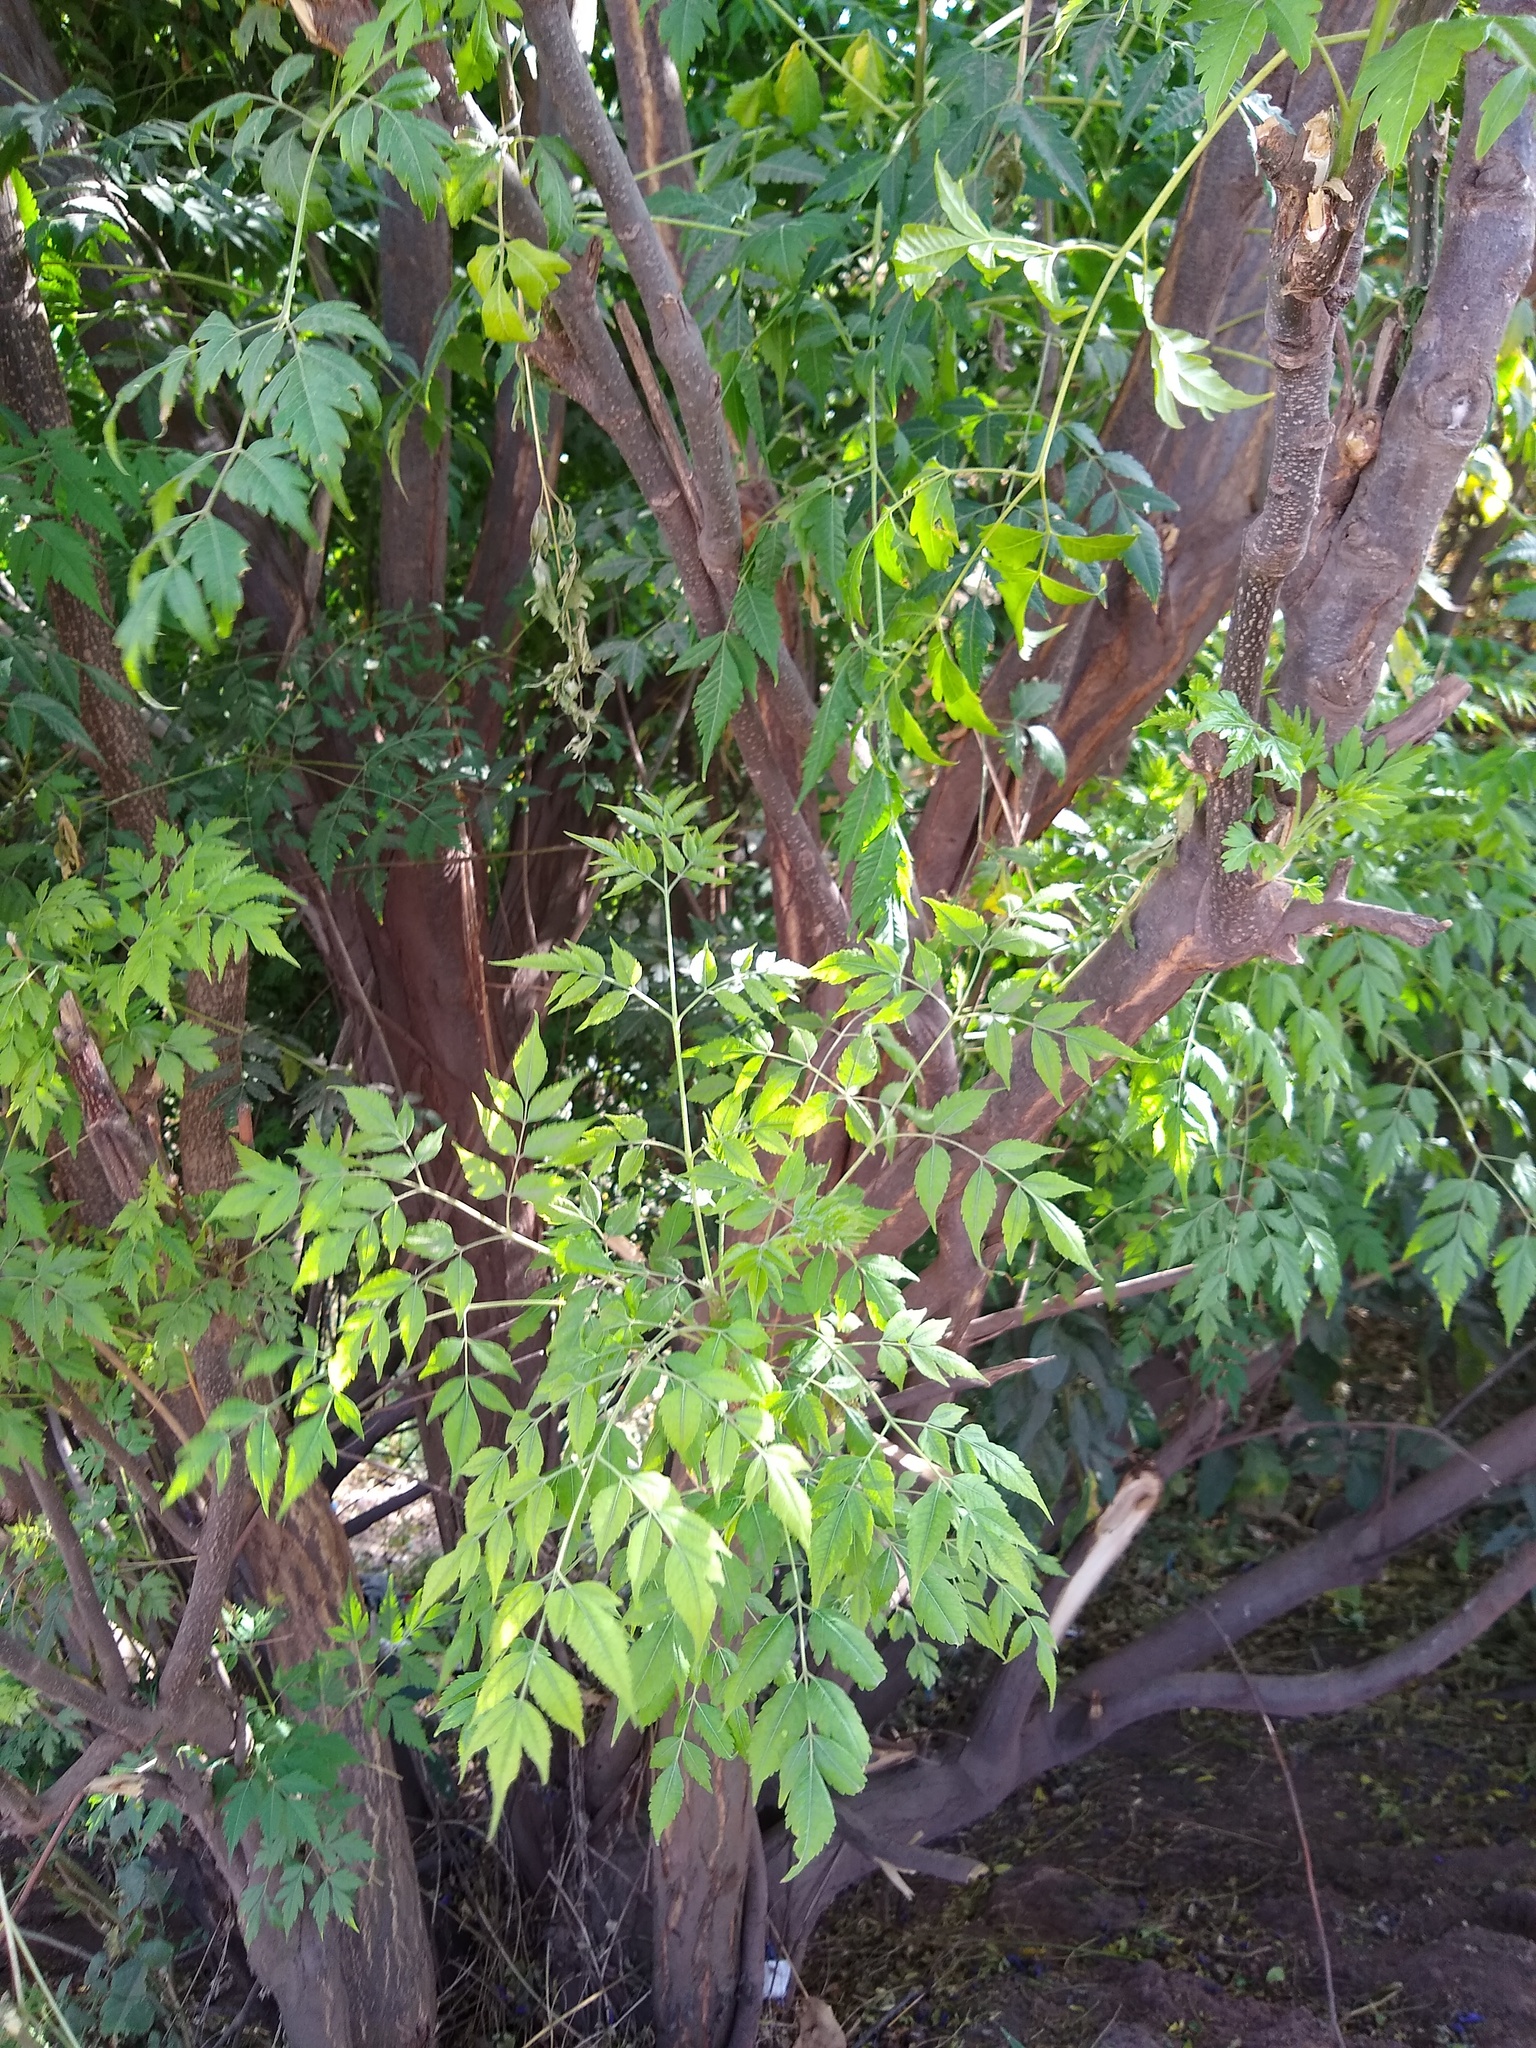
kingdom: Plantae
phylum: Tracheophyta
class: Magnoliopsida
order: Sapindales
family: Meliaceae
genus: Melia
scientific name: Melia azedarach
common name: Chinaberrytree
